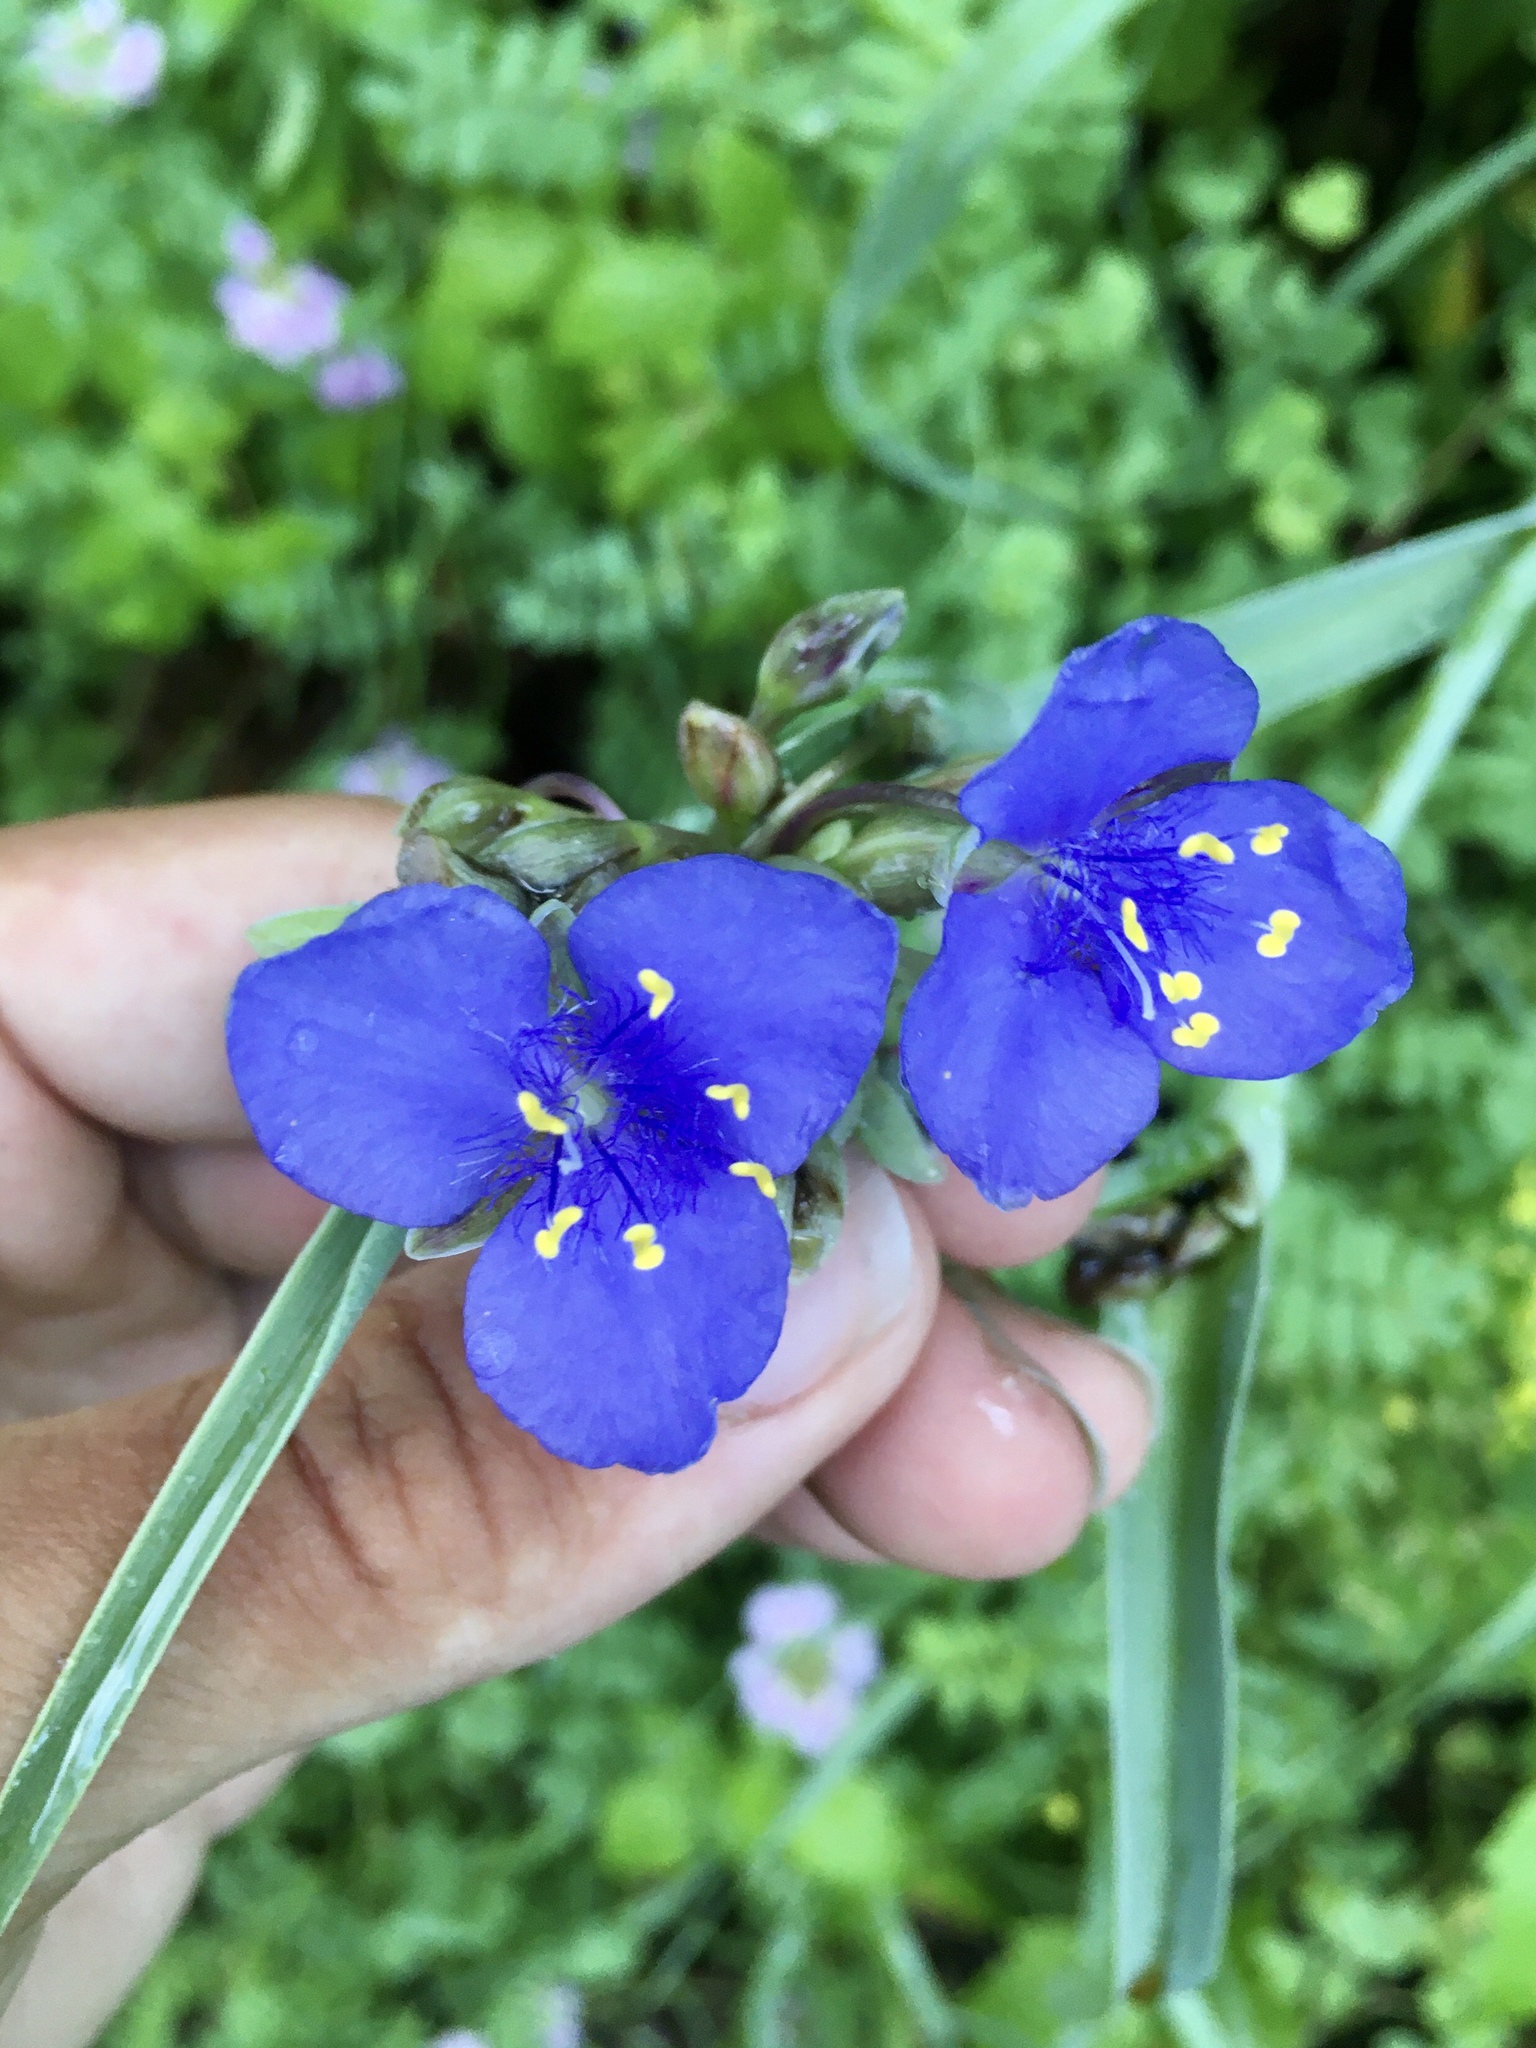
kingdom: Plantae
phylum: Tracheophyta
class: Liliopsida
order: Commelinales
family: Commelinaceae
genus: Tradescantia
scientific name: Tradescantia ohiensis
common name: Ohio spiderwort
